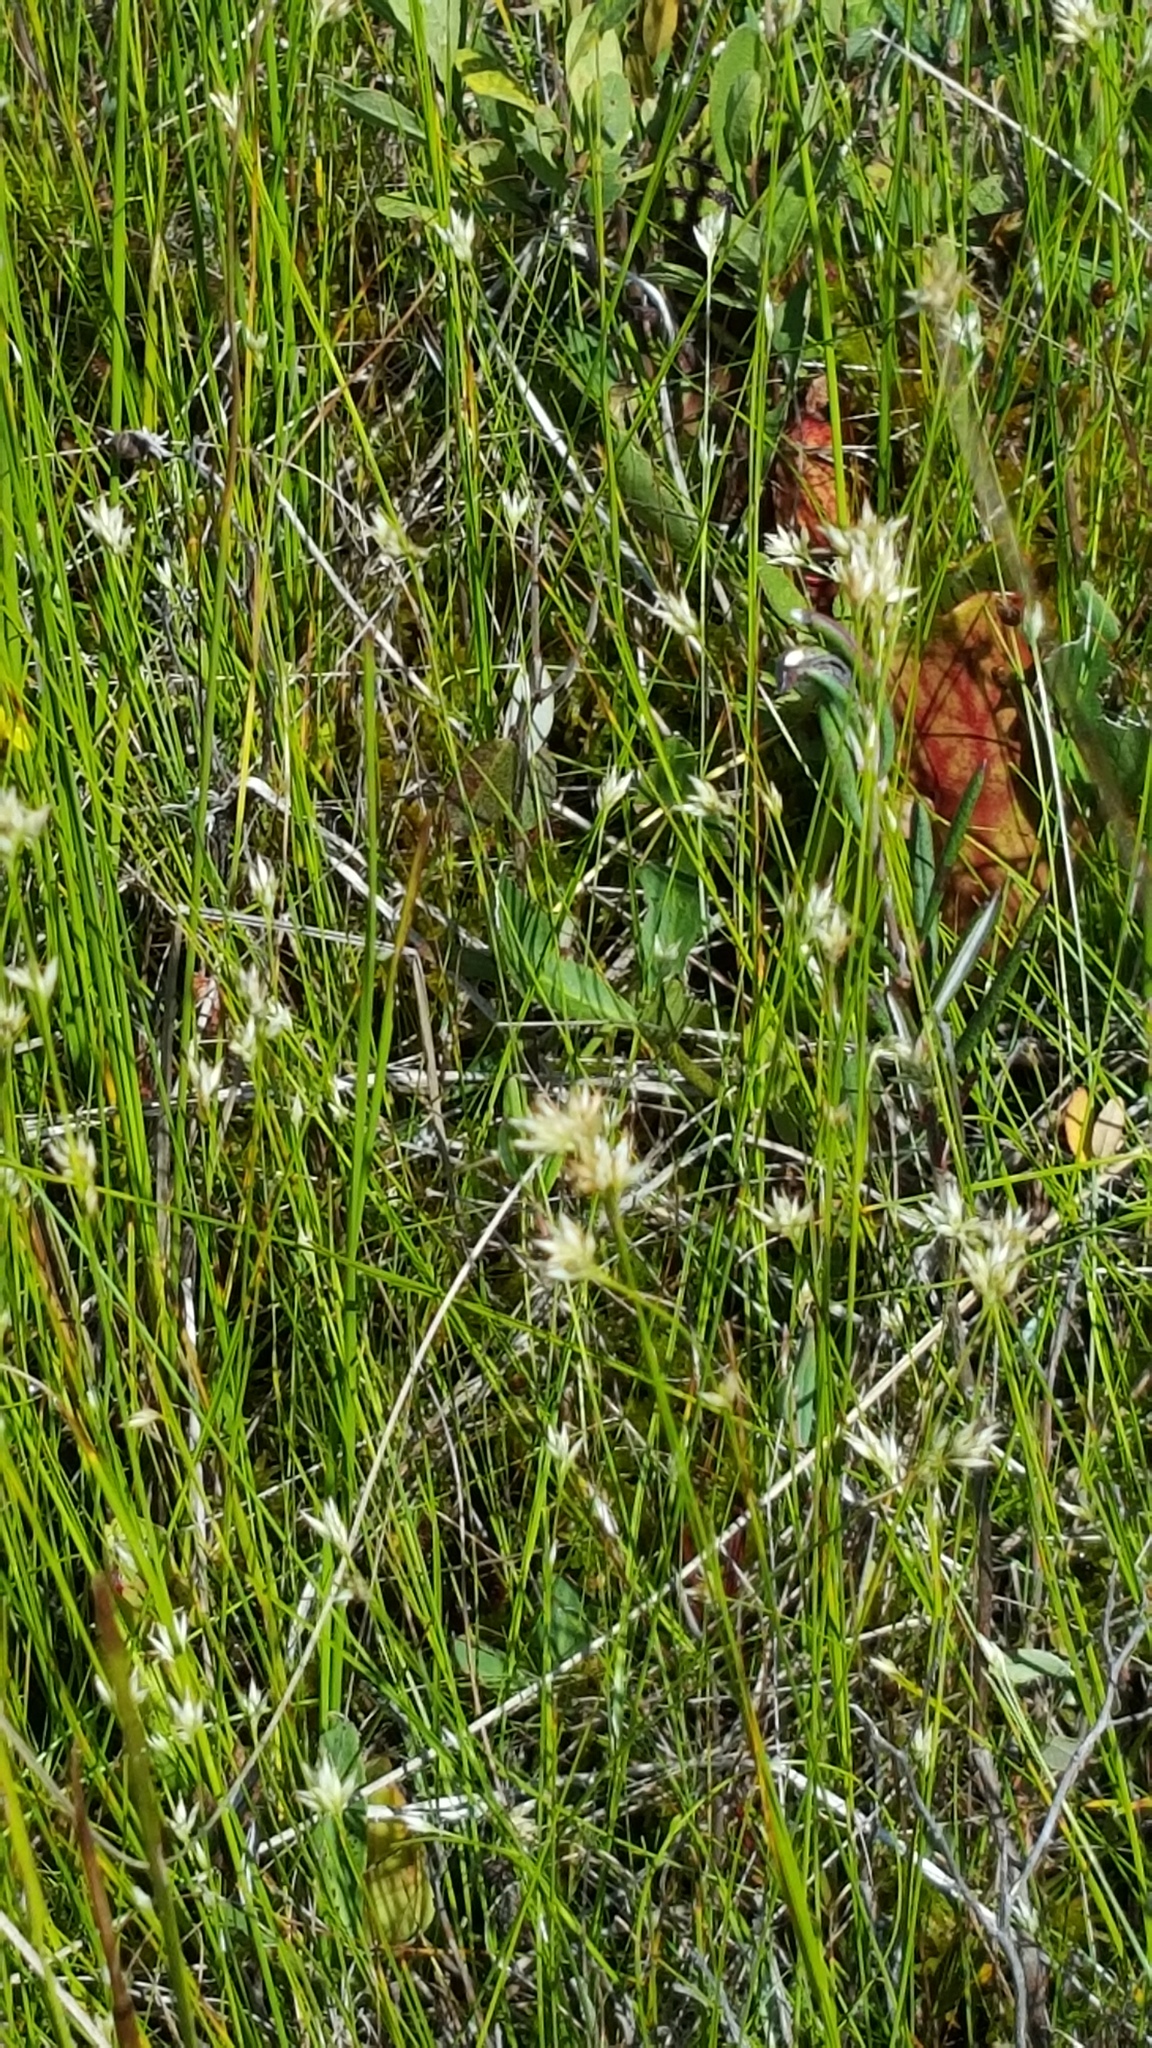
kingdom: Plantae
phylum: Tracheophyta
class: Liliopsida
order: Poales
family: Cyperaceae
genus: Rhynchospora
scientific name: Rhynchospora alba
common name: White beak-sedge
